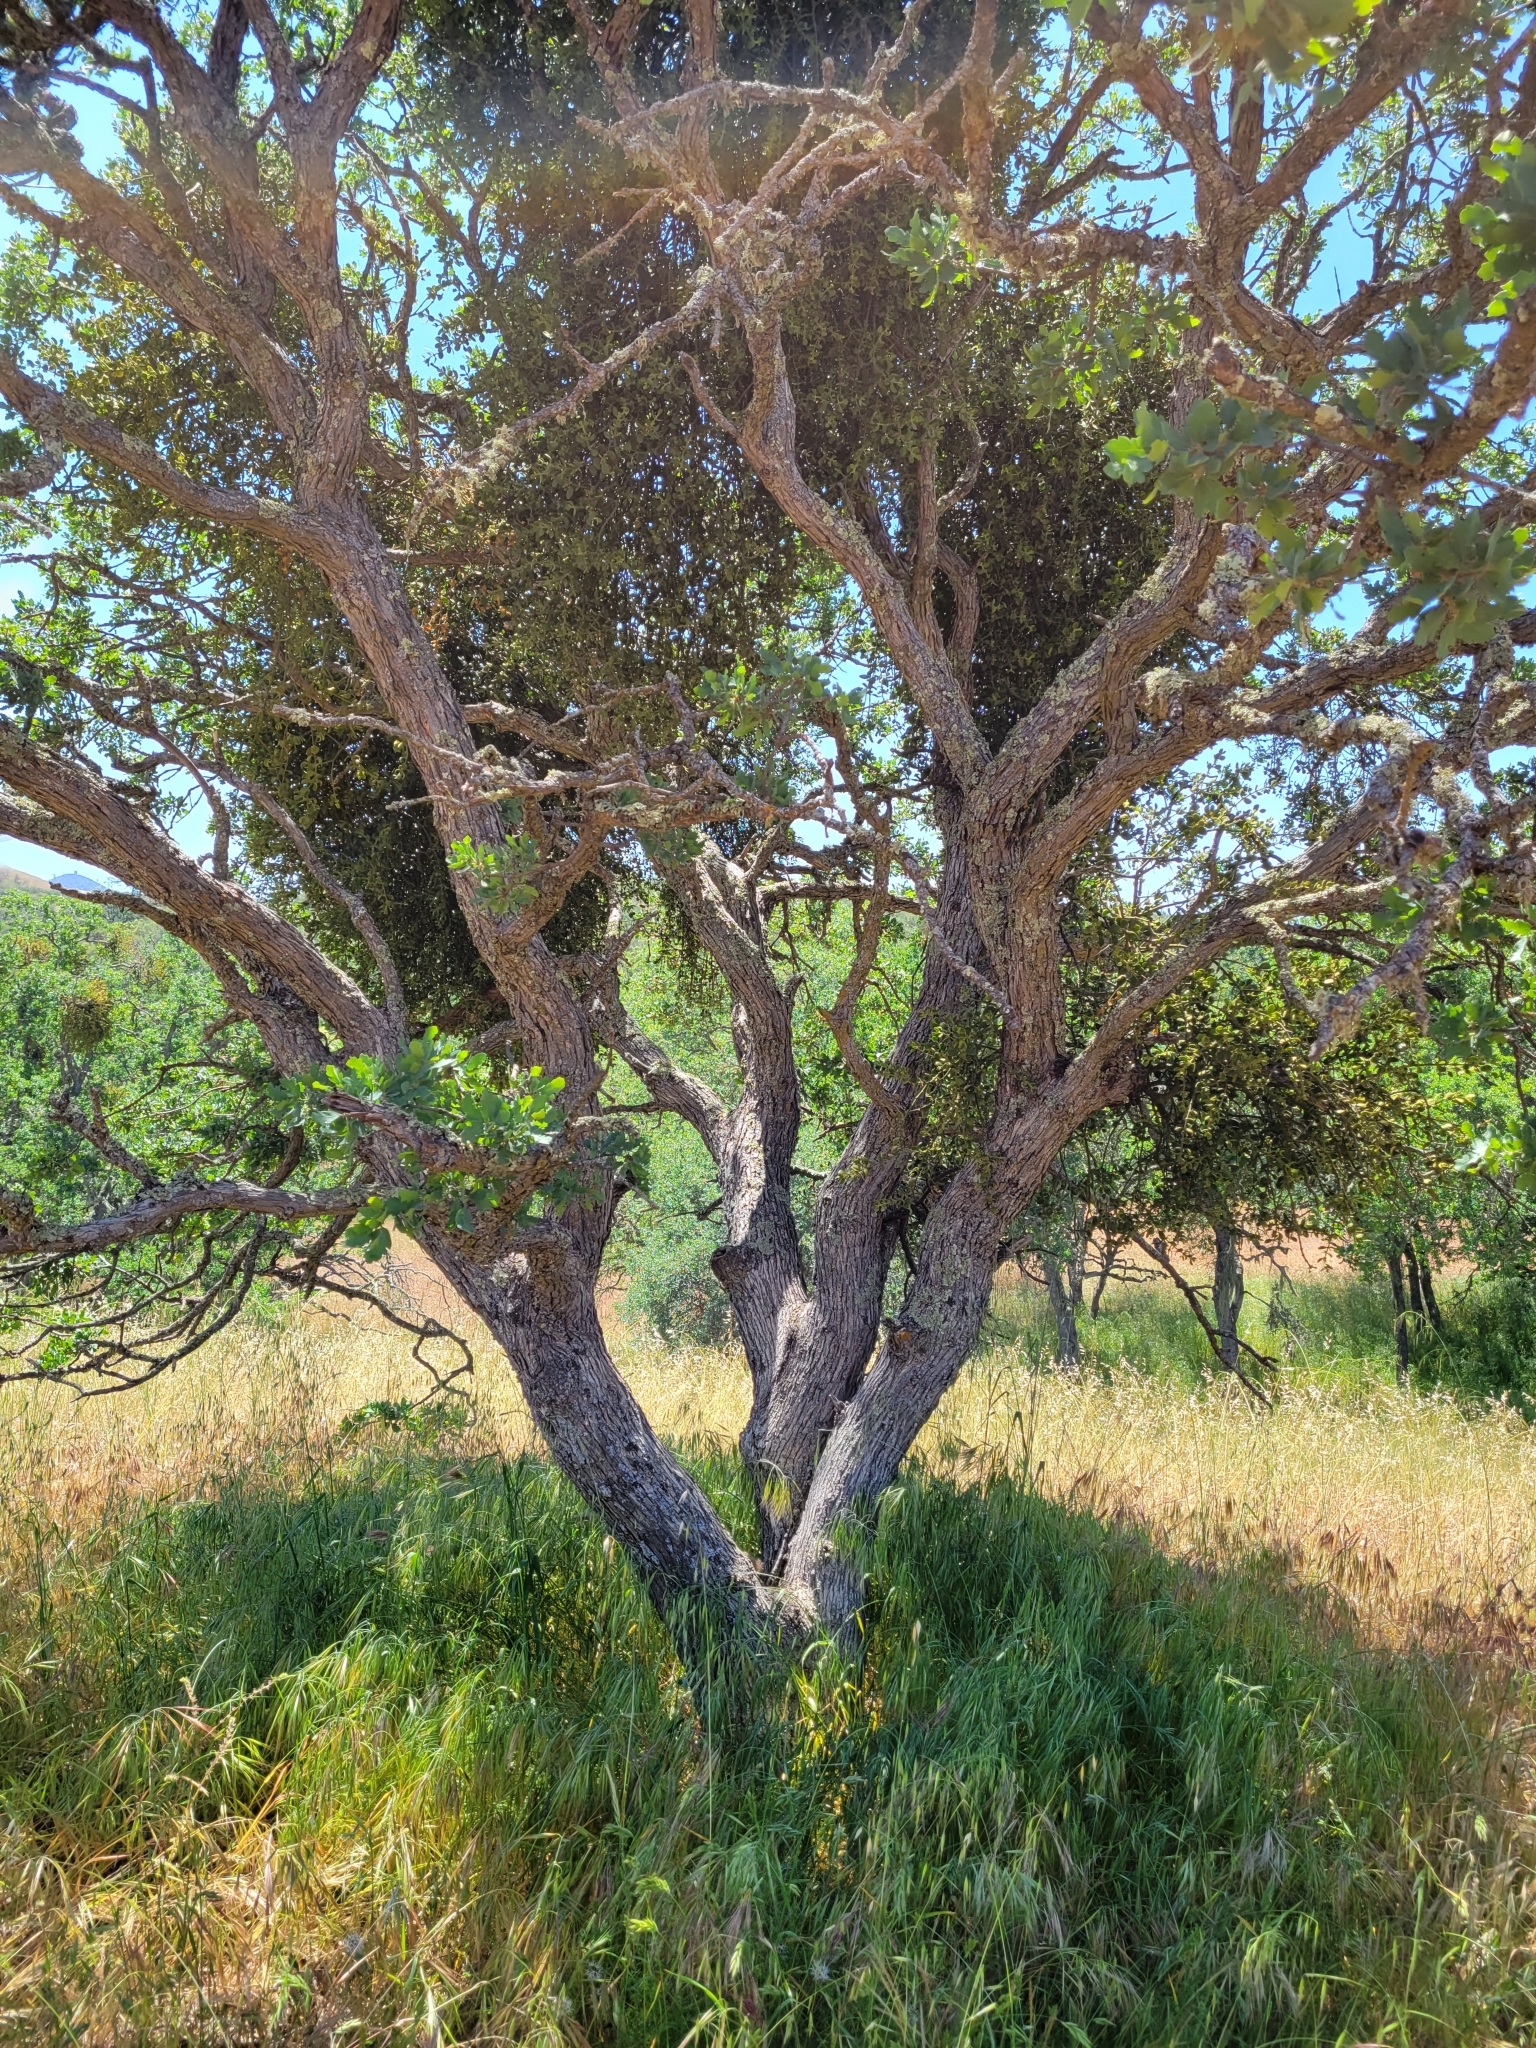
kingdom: Plantae
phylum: Tracheophyta
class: Magnoliopsida
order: Fagales
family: Fagaceae
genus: Quercus
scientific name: Quercus douglasii
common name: Blue oak
